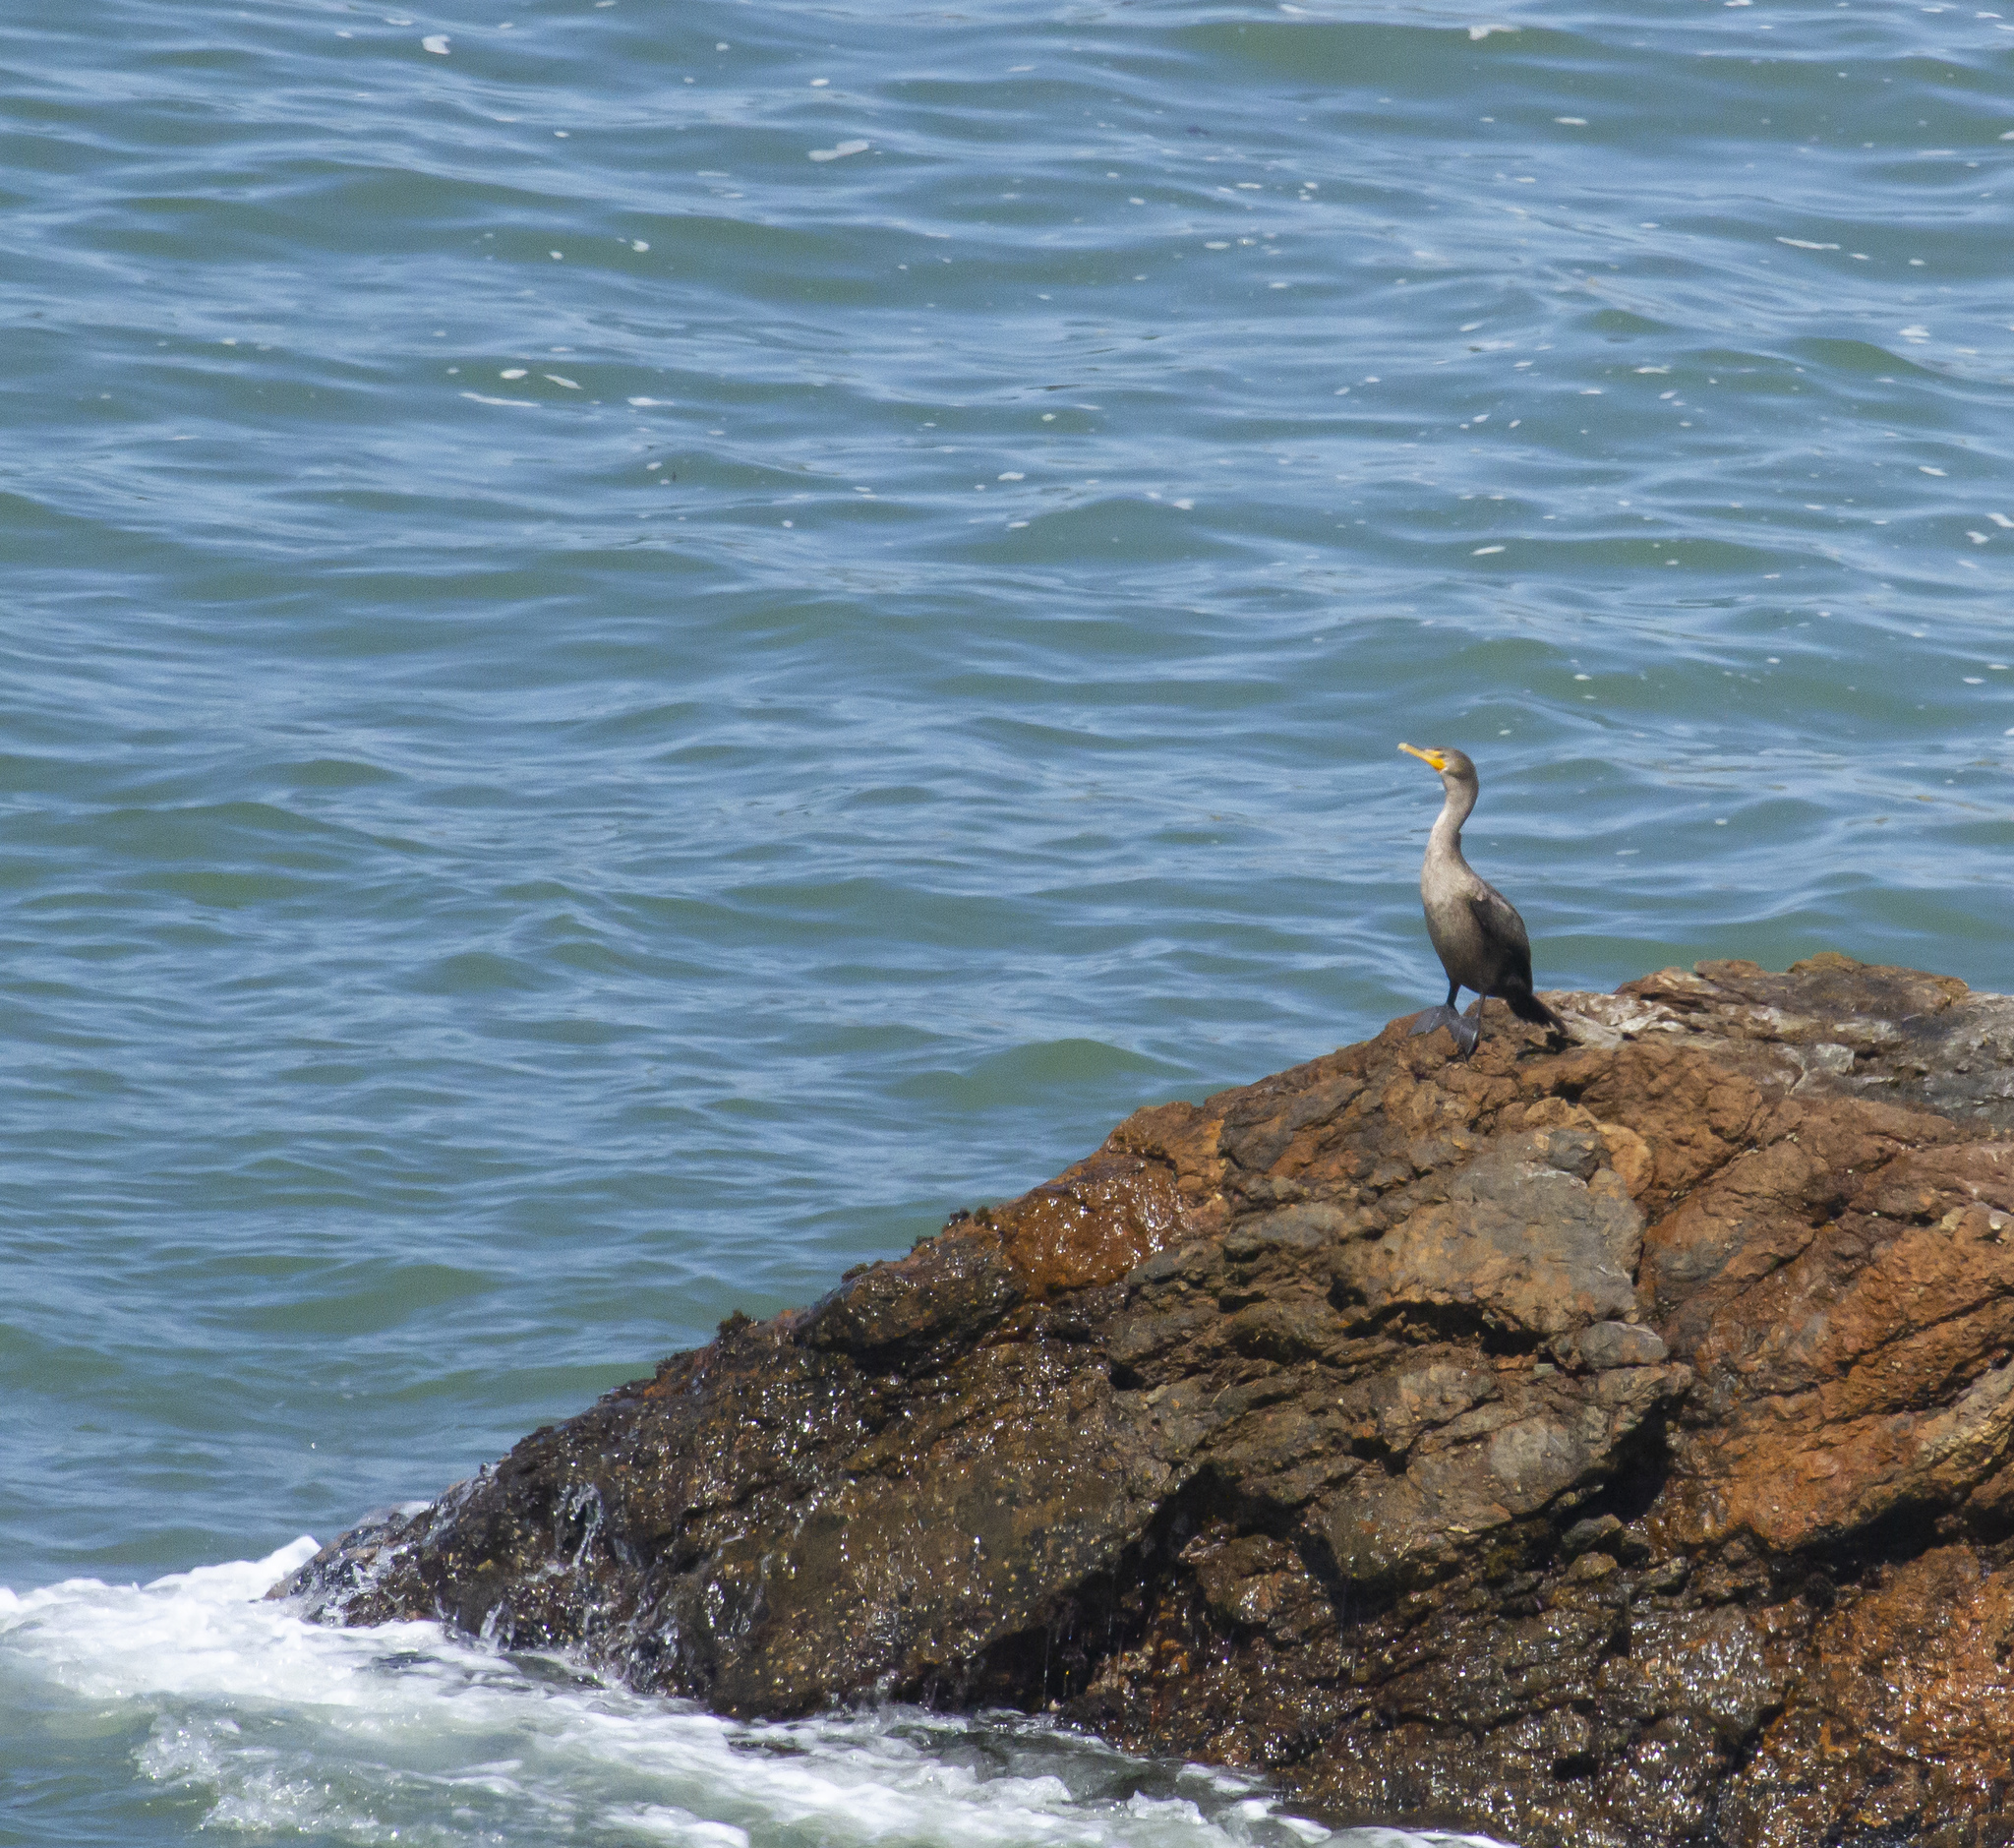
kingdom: Animalia
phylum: Chordata
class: Aves
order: Suliformes
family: Phalacrocoracidae
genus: Phalacrocorax
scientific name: Phalacrocorax auritus
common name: Double-crested cormorant
